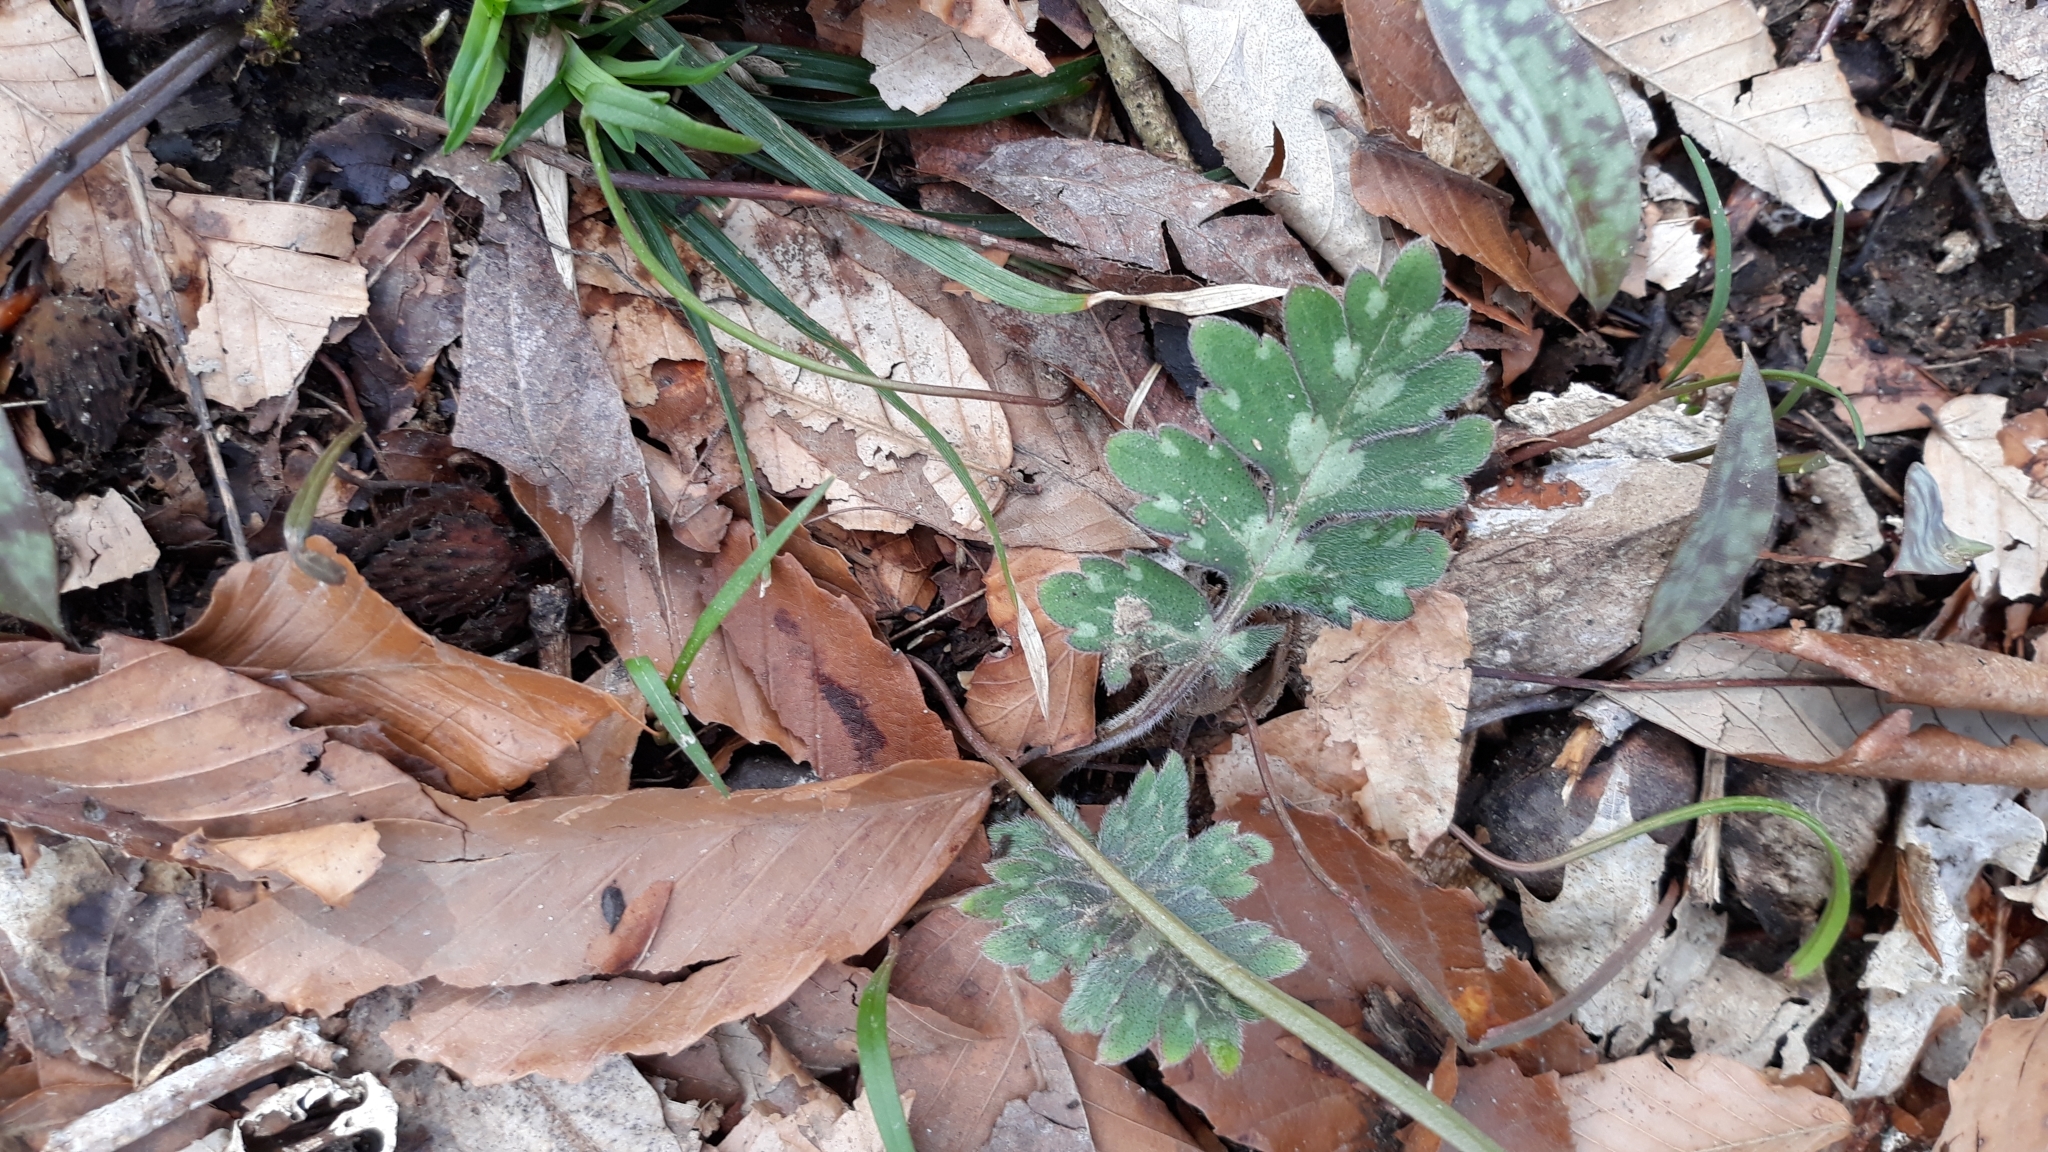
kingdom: Plantae
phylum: Tracheophyta
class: Magnoliopsida
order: Boraginales
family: Hydrophyllaceae
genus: Hydrophyllum
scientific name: Hydrophyllum macrophyllum
